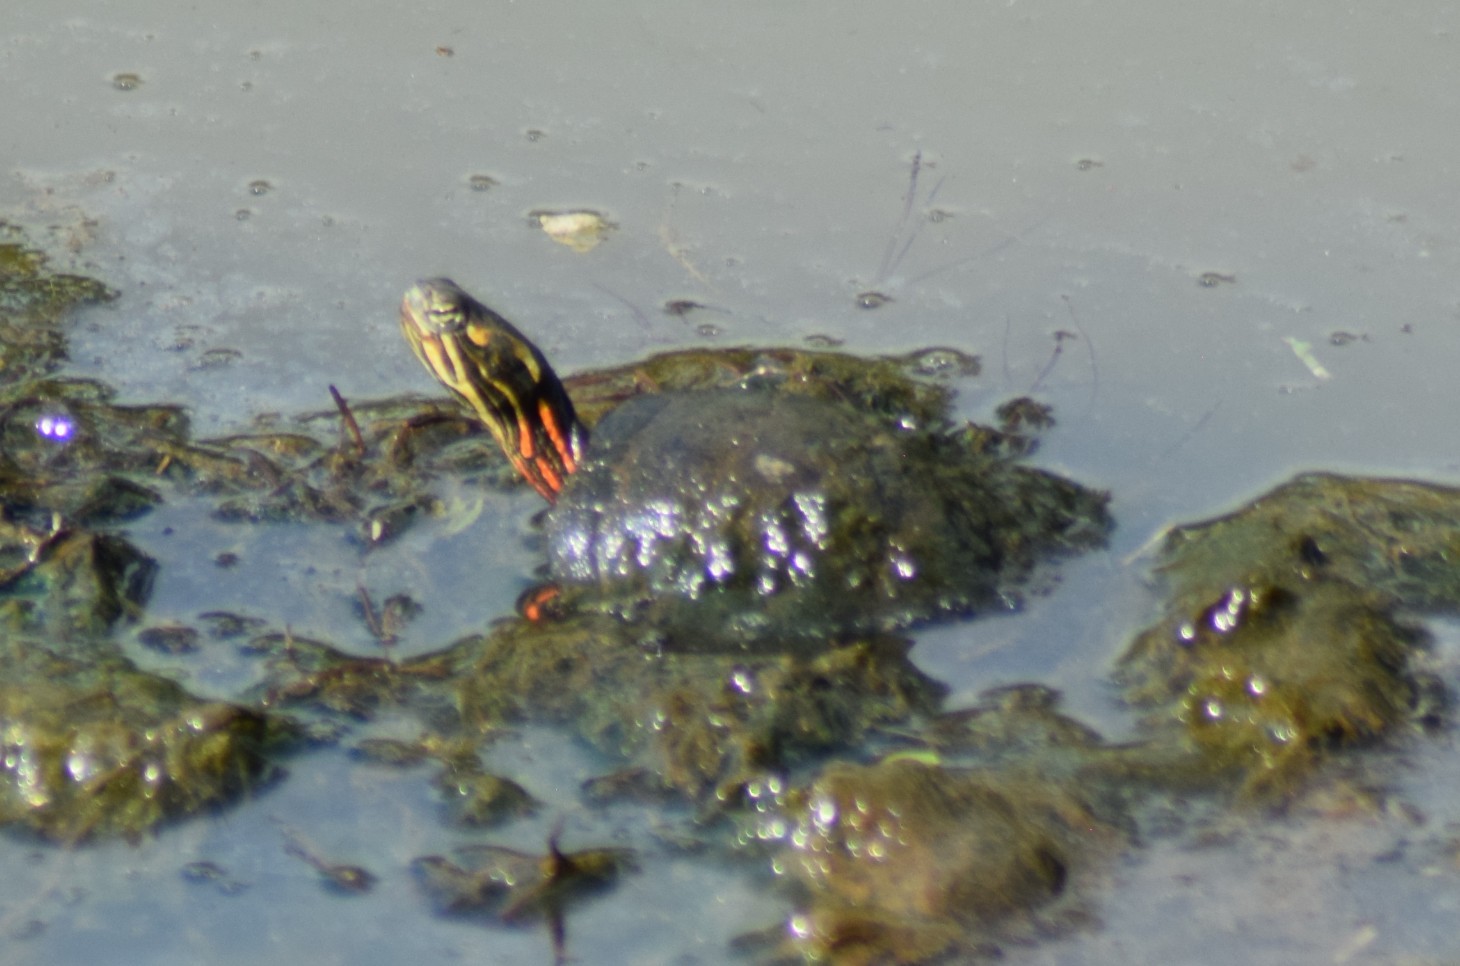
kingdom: Animalia
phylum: Chordata
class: Testudines
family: Emydidae
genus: Chrysemys
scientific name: Chrysemys picta
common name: Painted turtle
